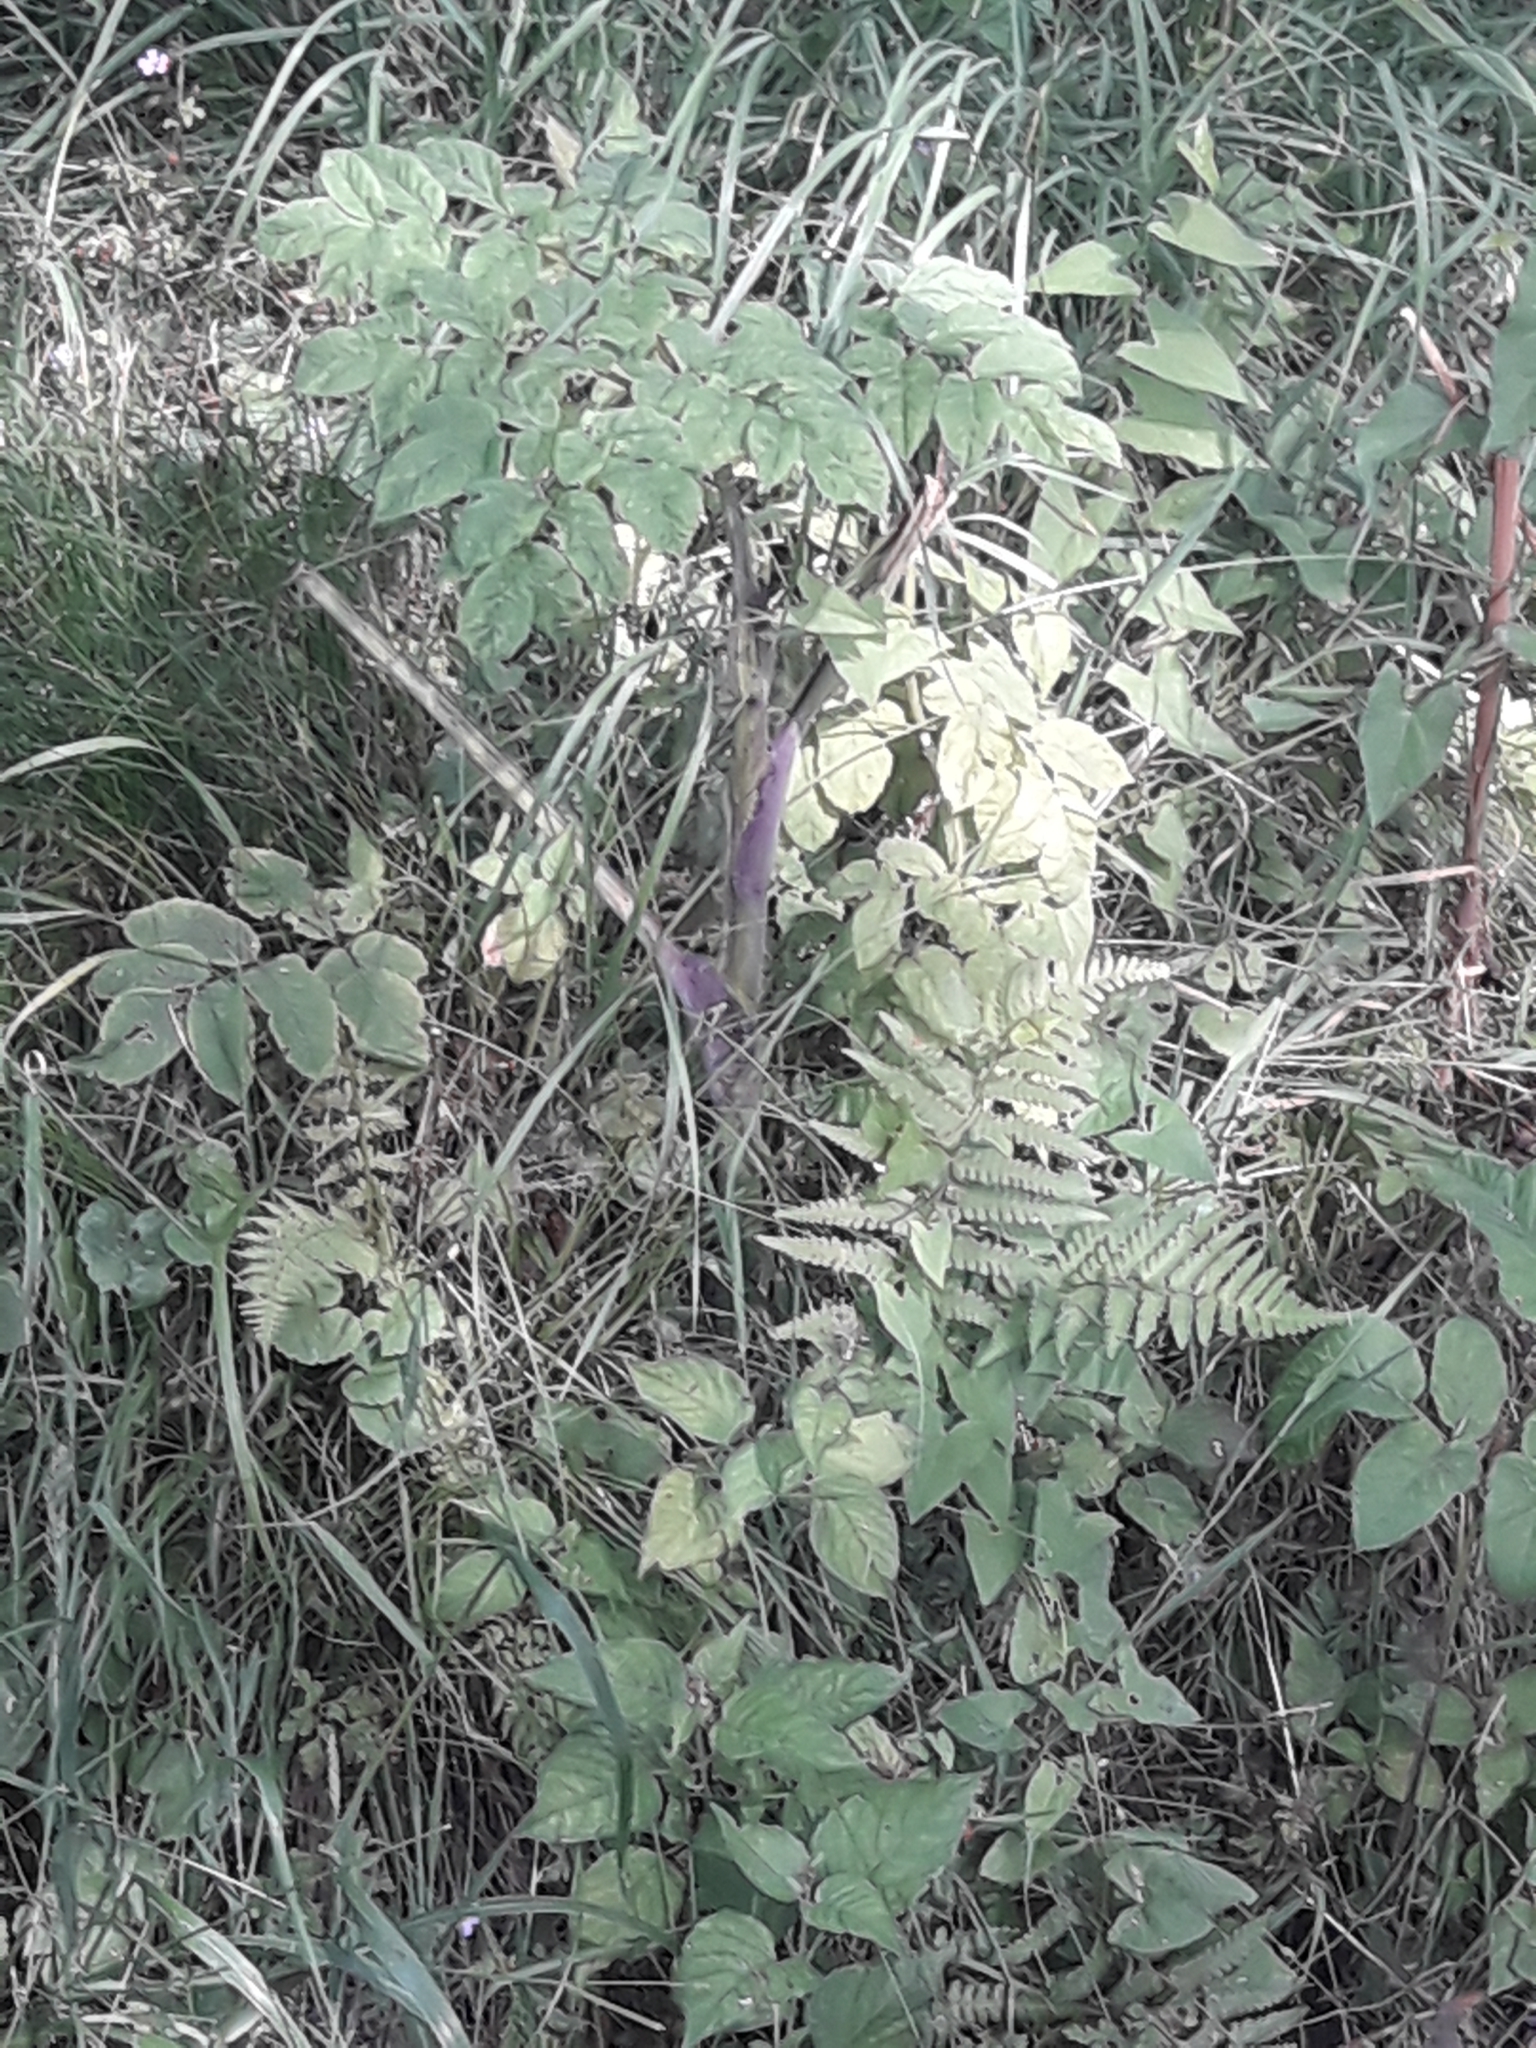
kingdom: Plantae
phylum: Tracheophyta
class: Magnoliopsida
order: Apiales
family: Apiaceae
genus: Angelica
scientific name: Angelica sylvestris
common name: Wild angelica
